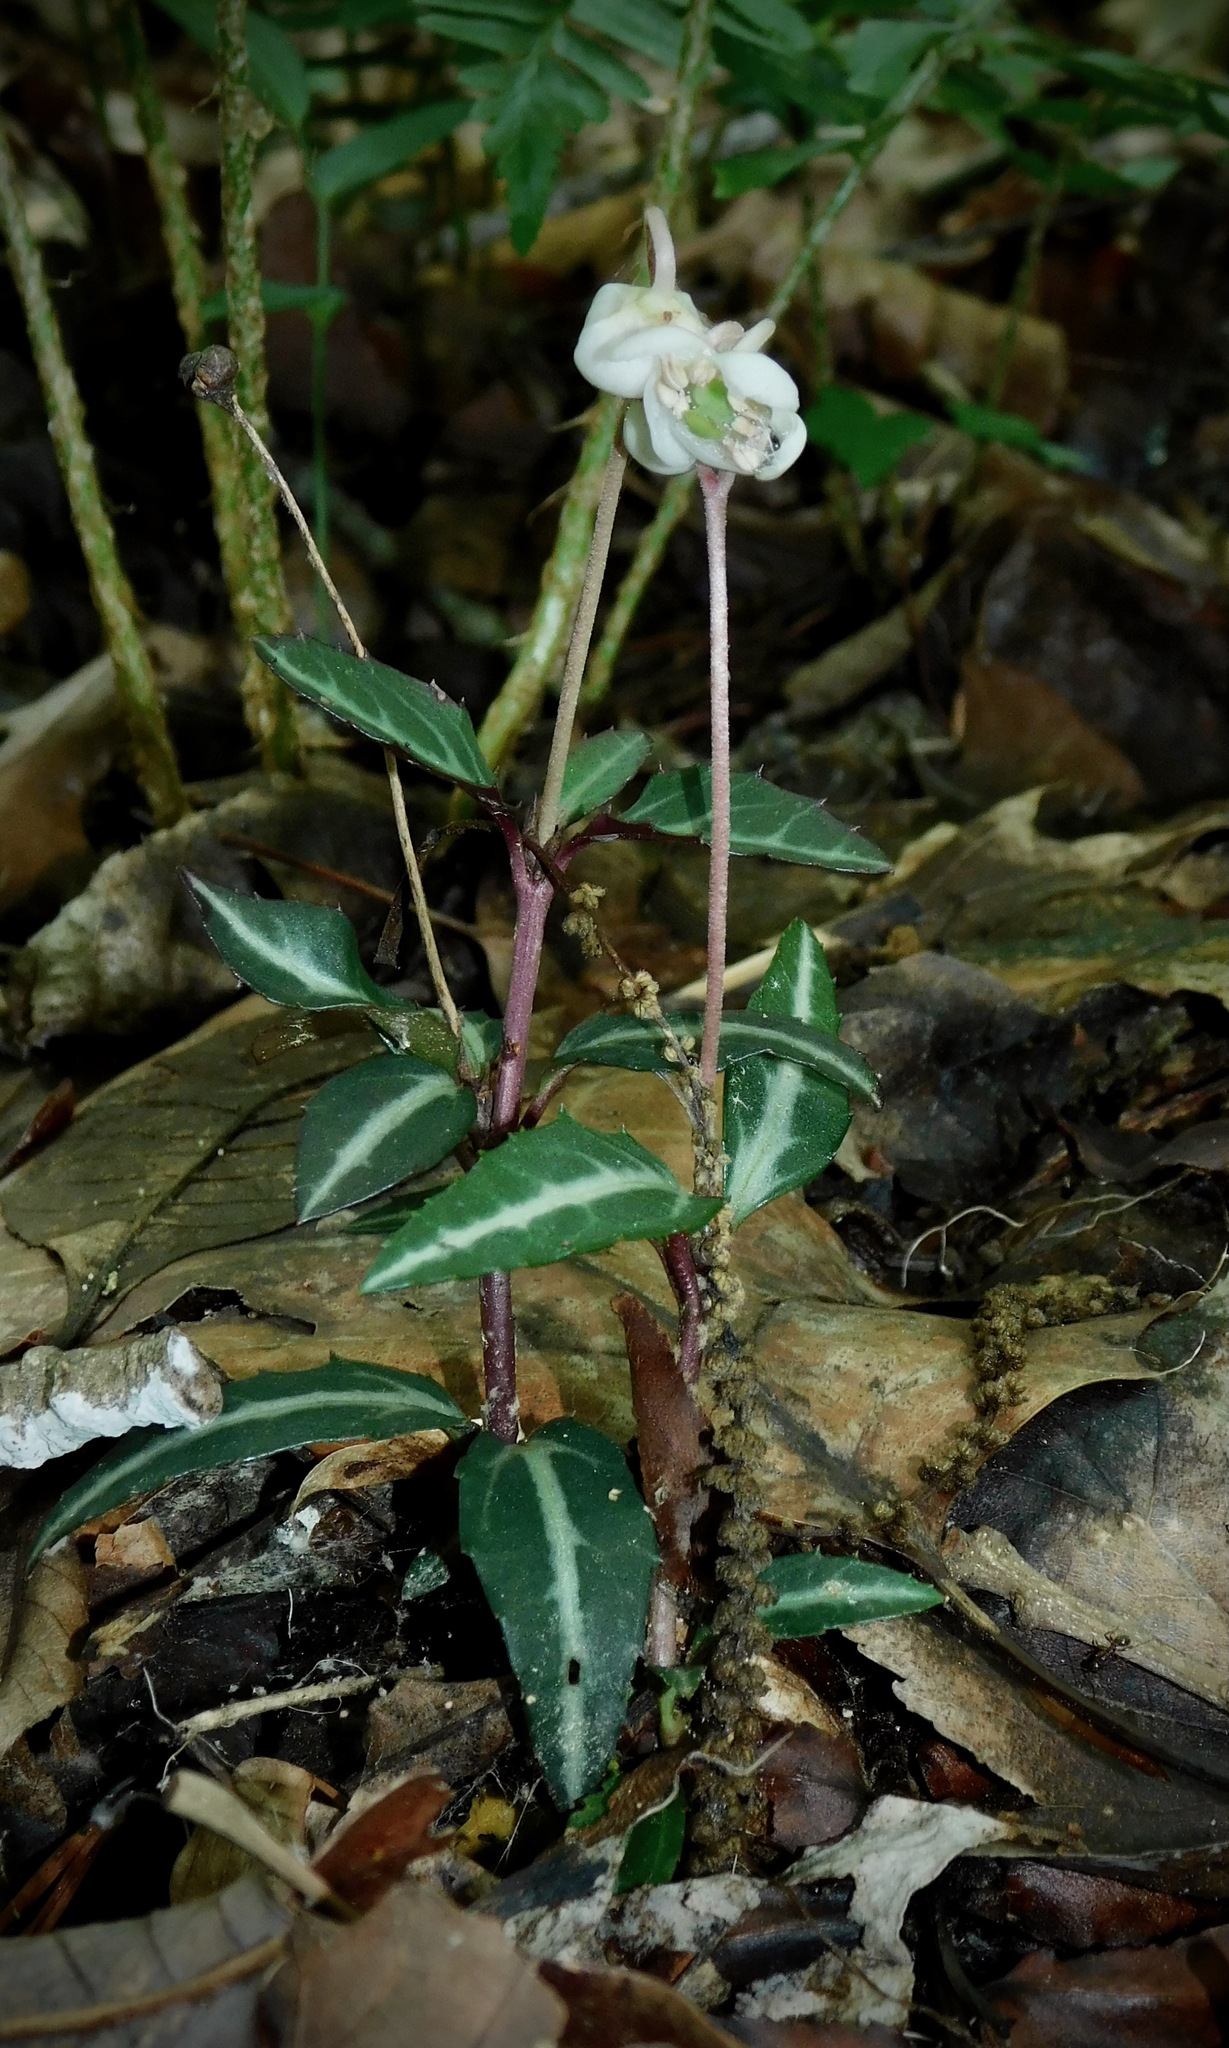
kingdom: Plantae
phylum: Tracheophyta
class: Magnoliopsida
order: Ericales
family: Ericaceae
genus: Chimaphila
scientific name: Chimaphila maculata
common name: Spotted pipsissewa
